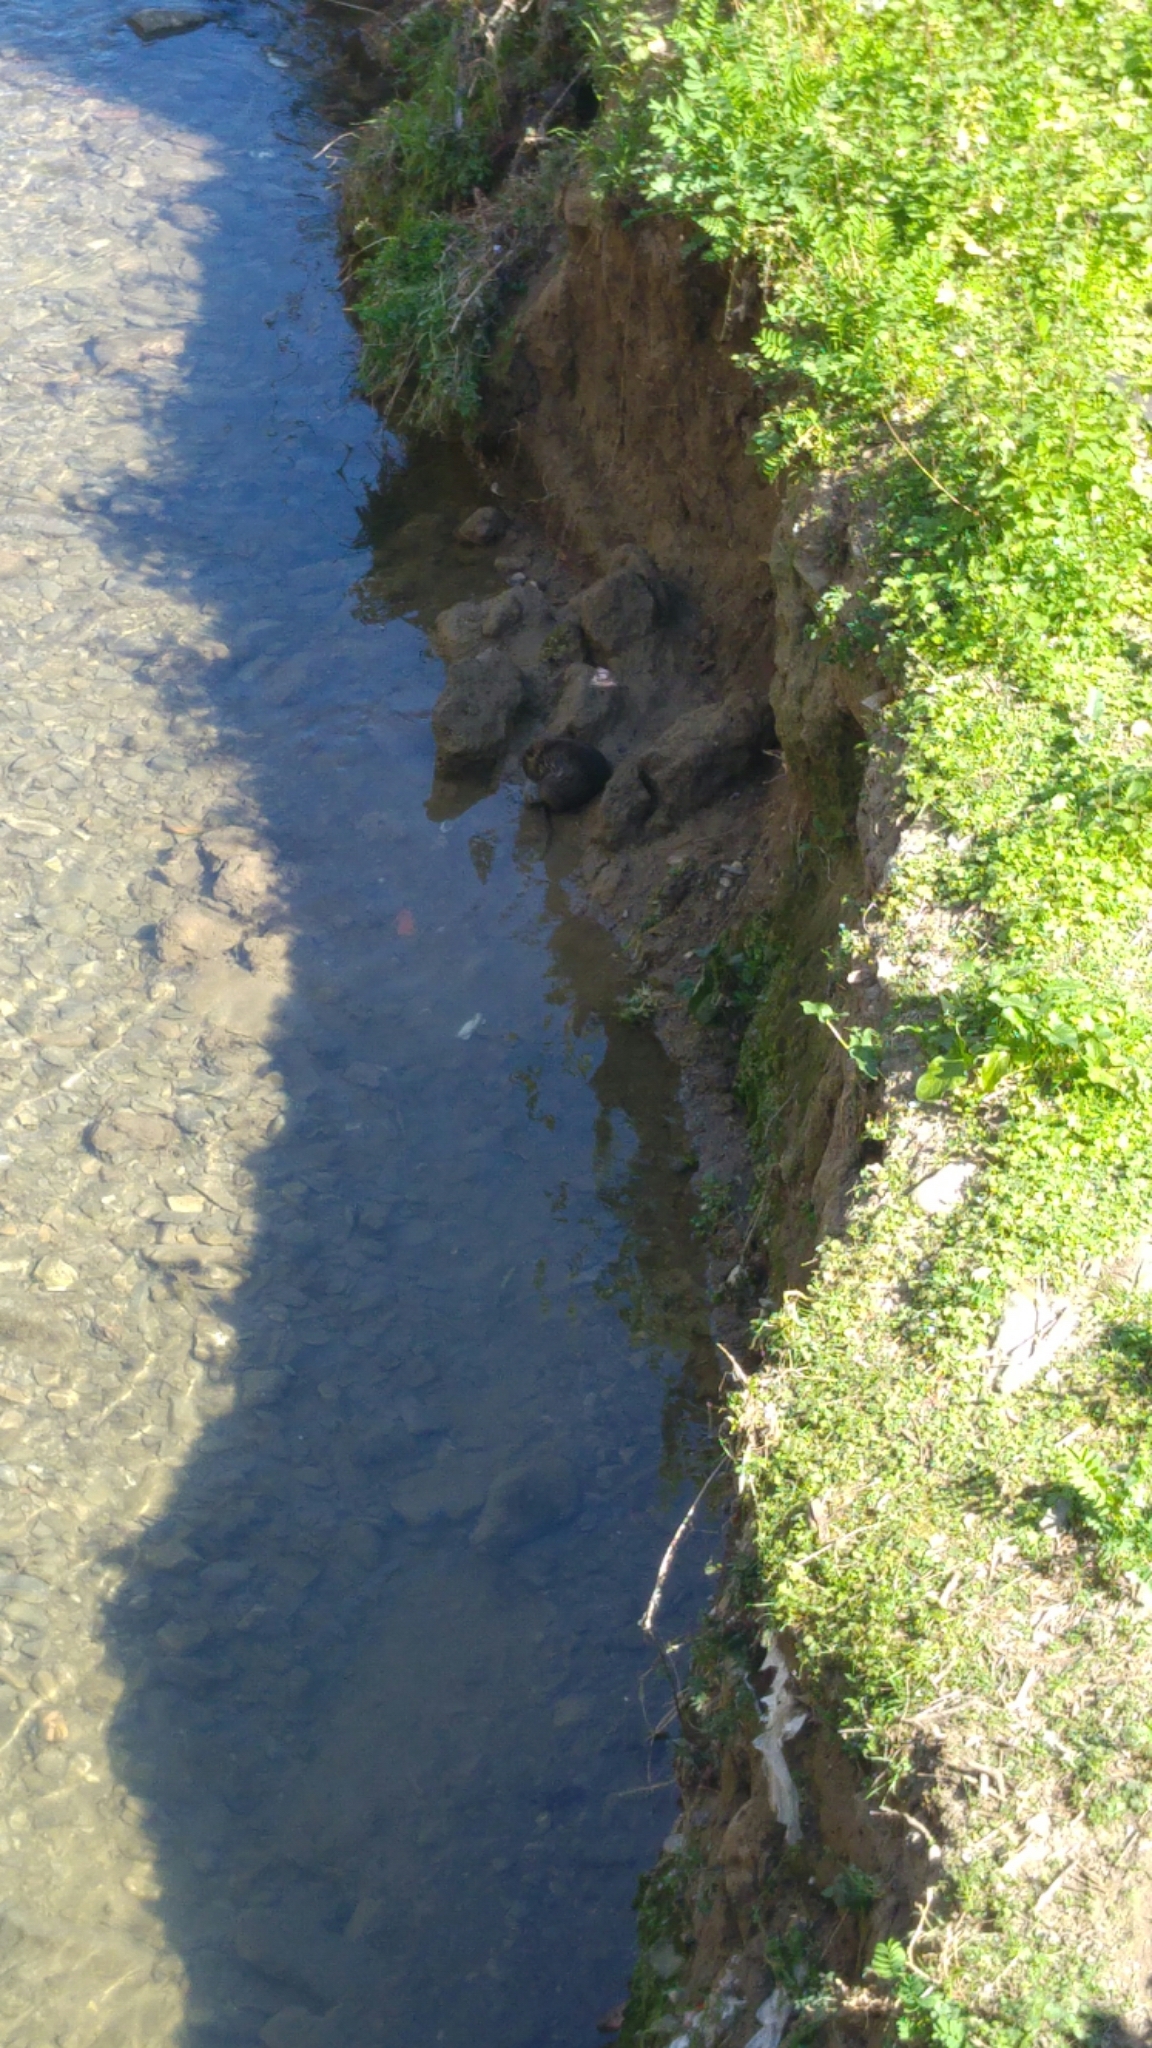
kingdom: Animalia
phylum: Chordata
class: Mammalia
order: Rodentia
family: Myocastoridae
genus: Myocastor
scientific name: Myocastor coypus
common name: Coypu
